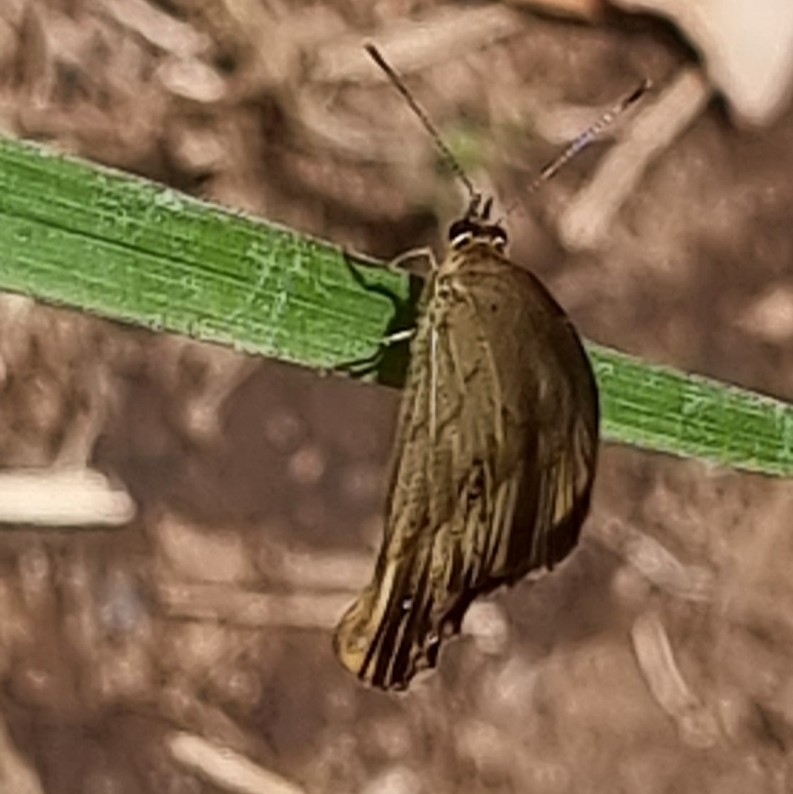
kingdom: Animalia
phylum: Arthropoda
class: Insecta
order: Lepidoptera
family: Nymphalidae
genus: Hypocysta
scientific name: Hypocysta metirius
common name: Brown ringlet
